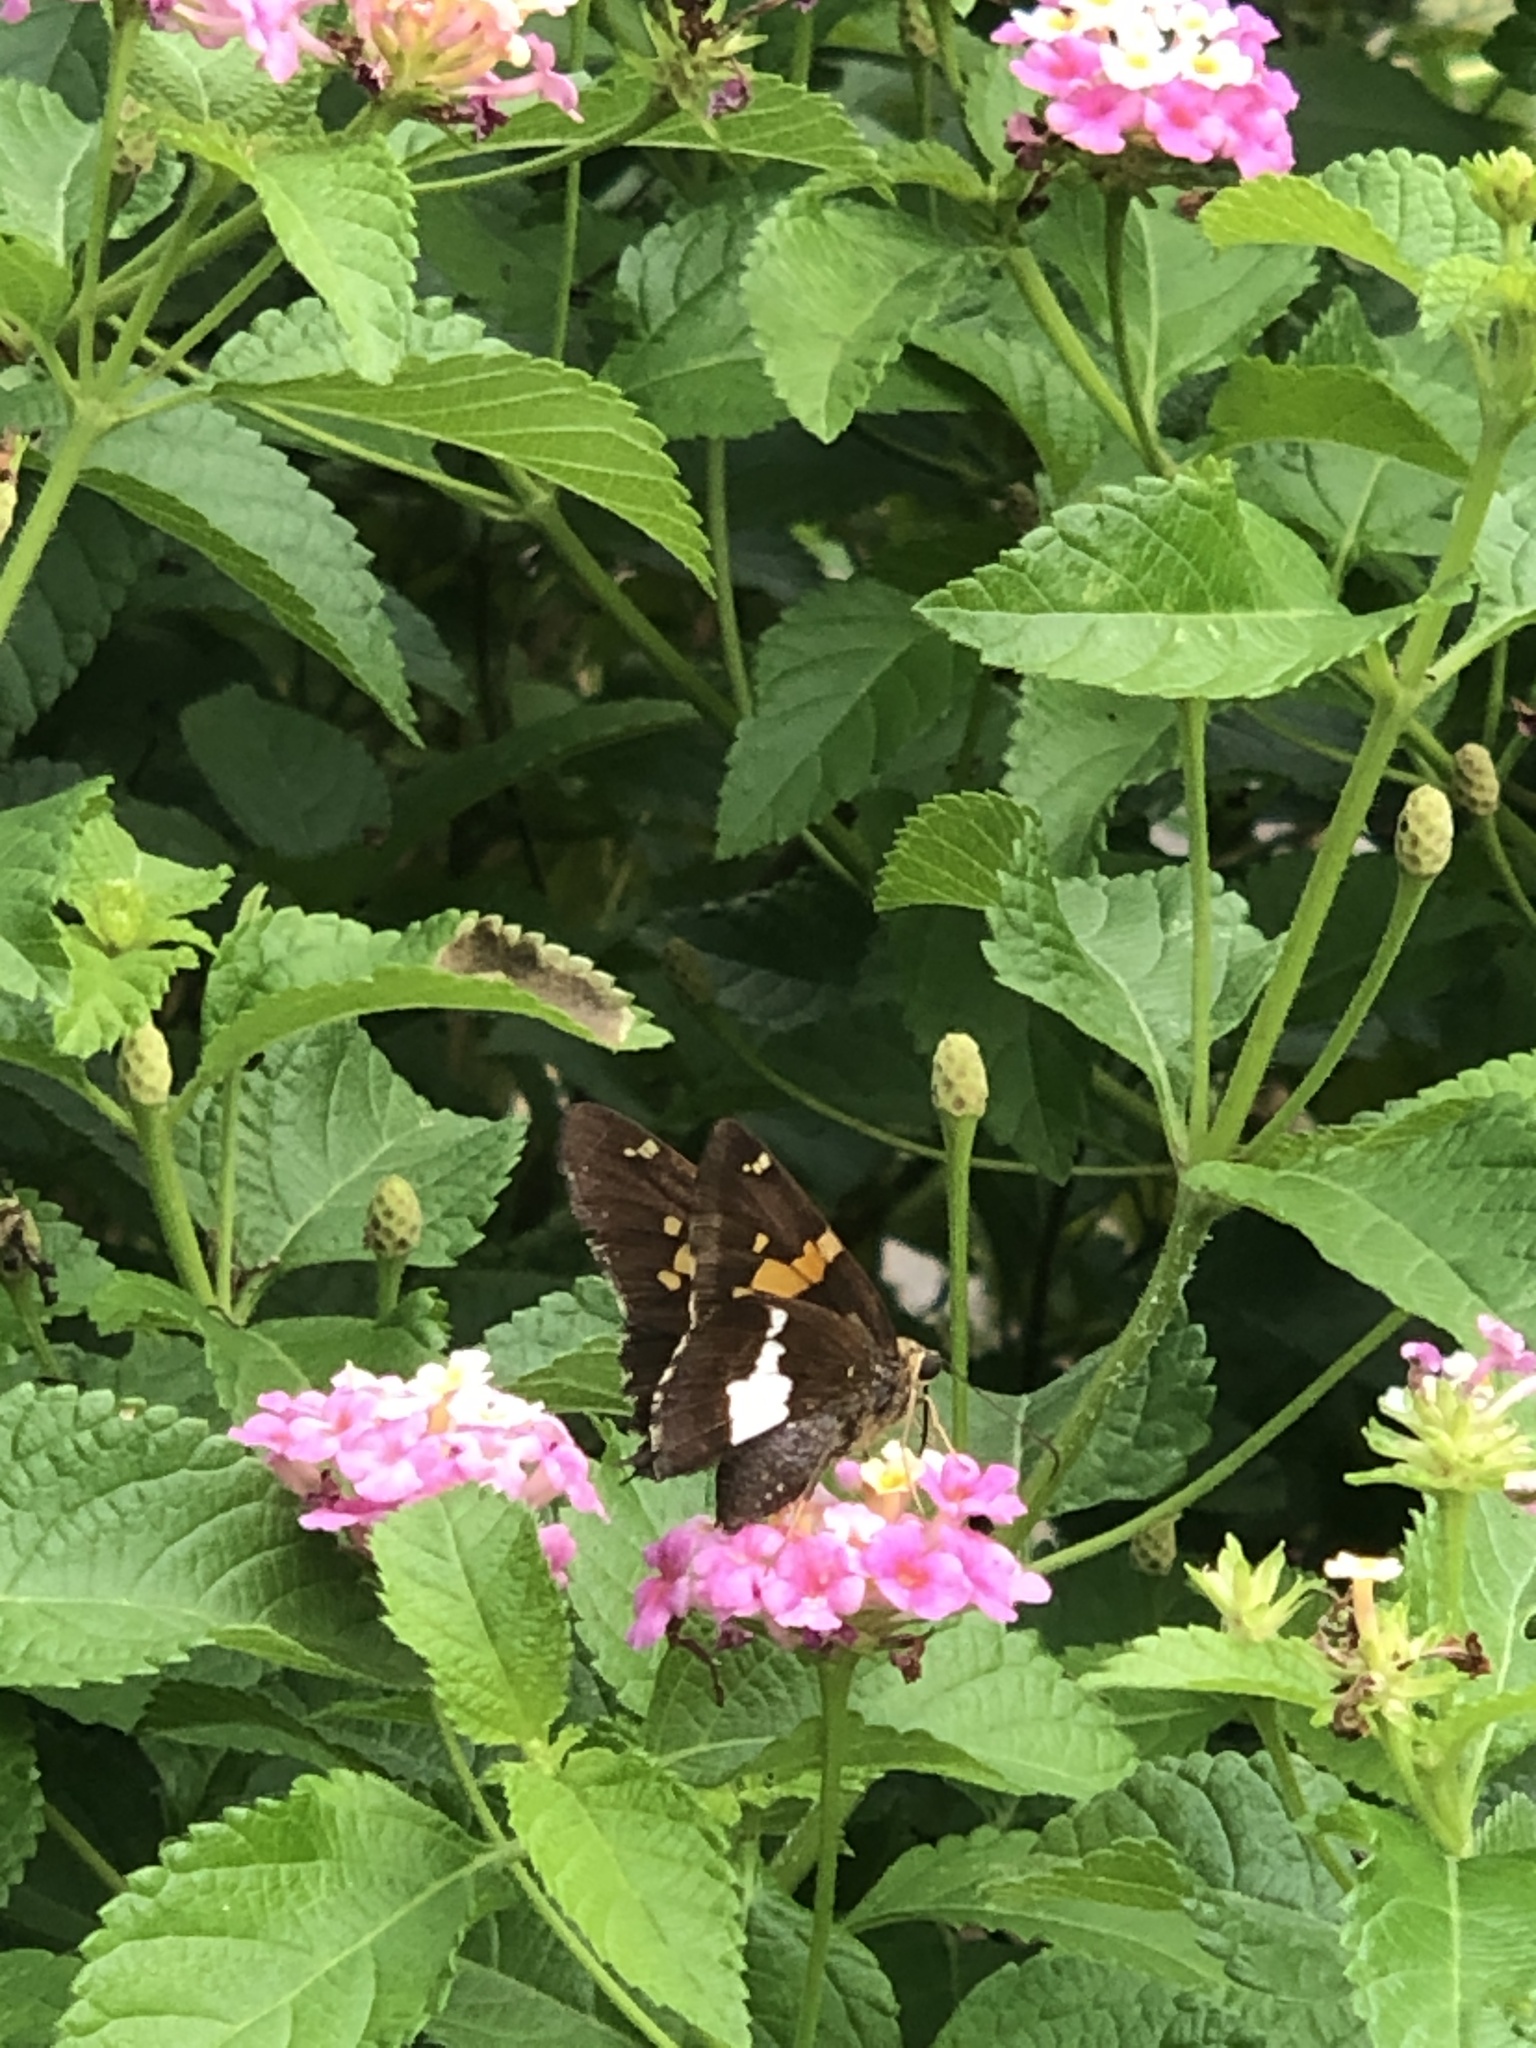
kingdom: Animalia
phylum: Arthropoda
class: Insecta
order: Lepidoptera
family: Hesperiidae
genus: Epargyreus
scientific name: Epargyreus clarus
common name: Silver-spotted skipper
